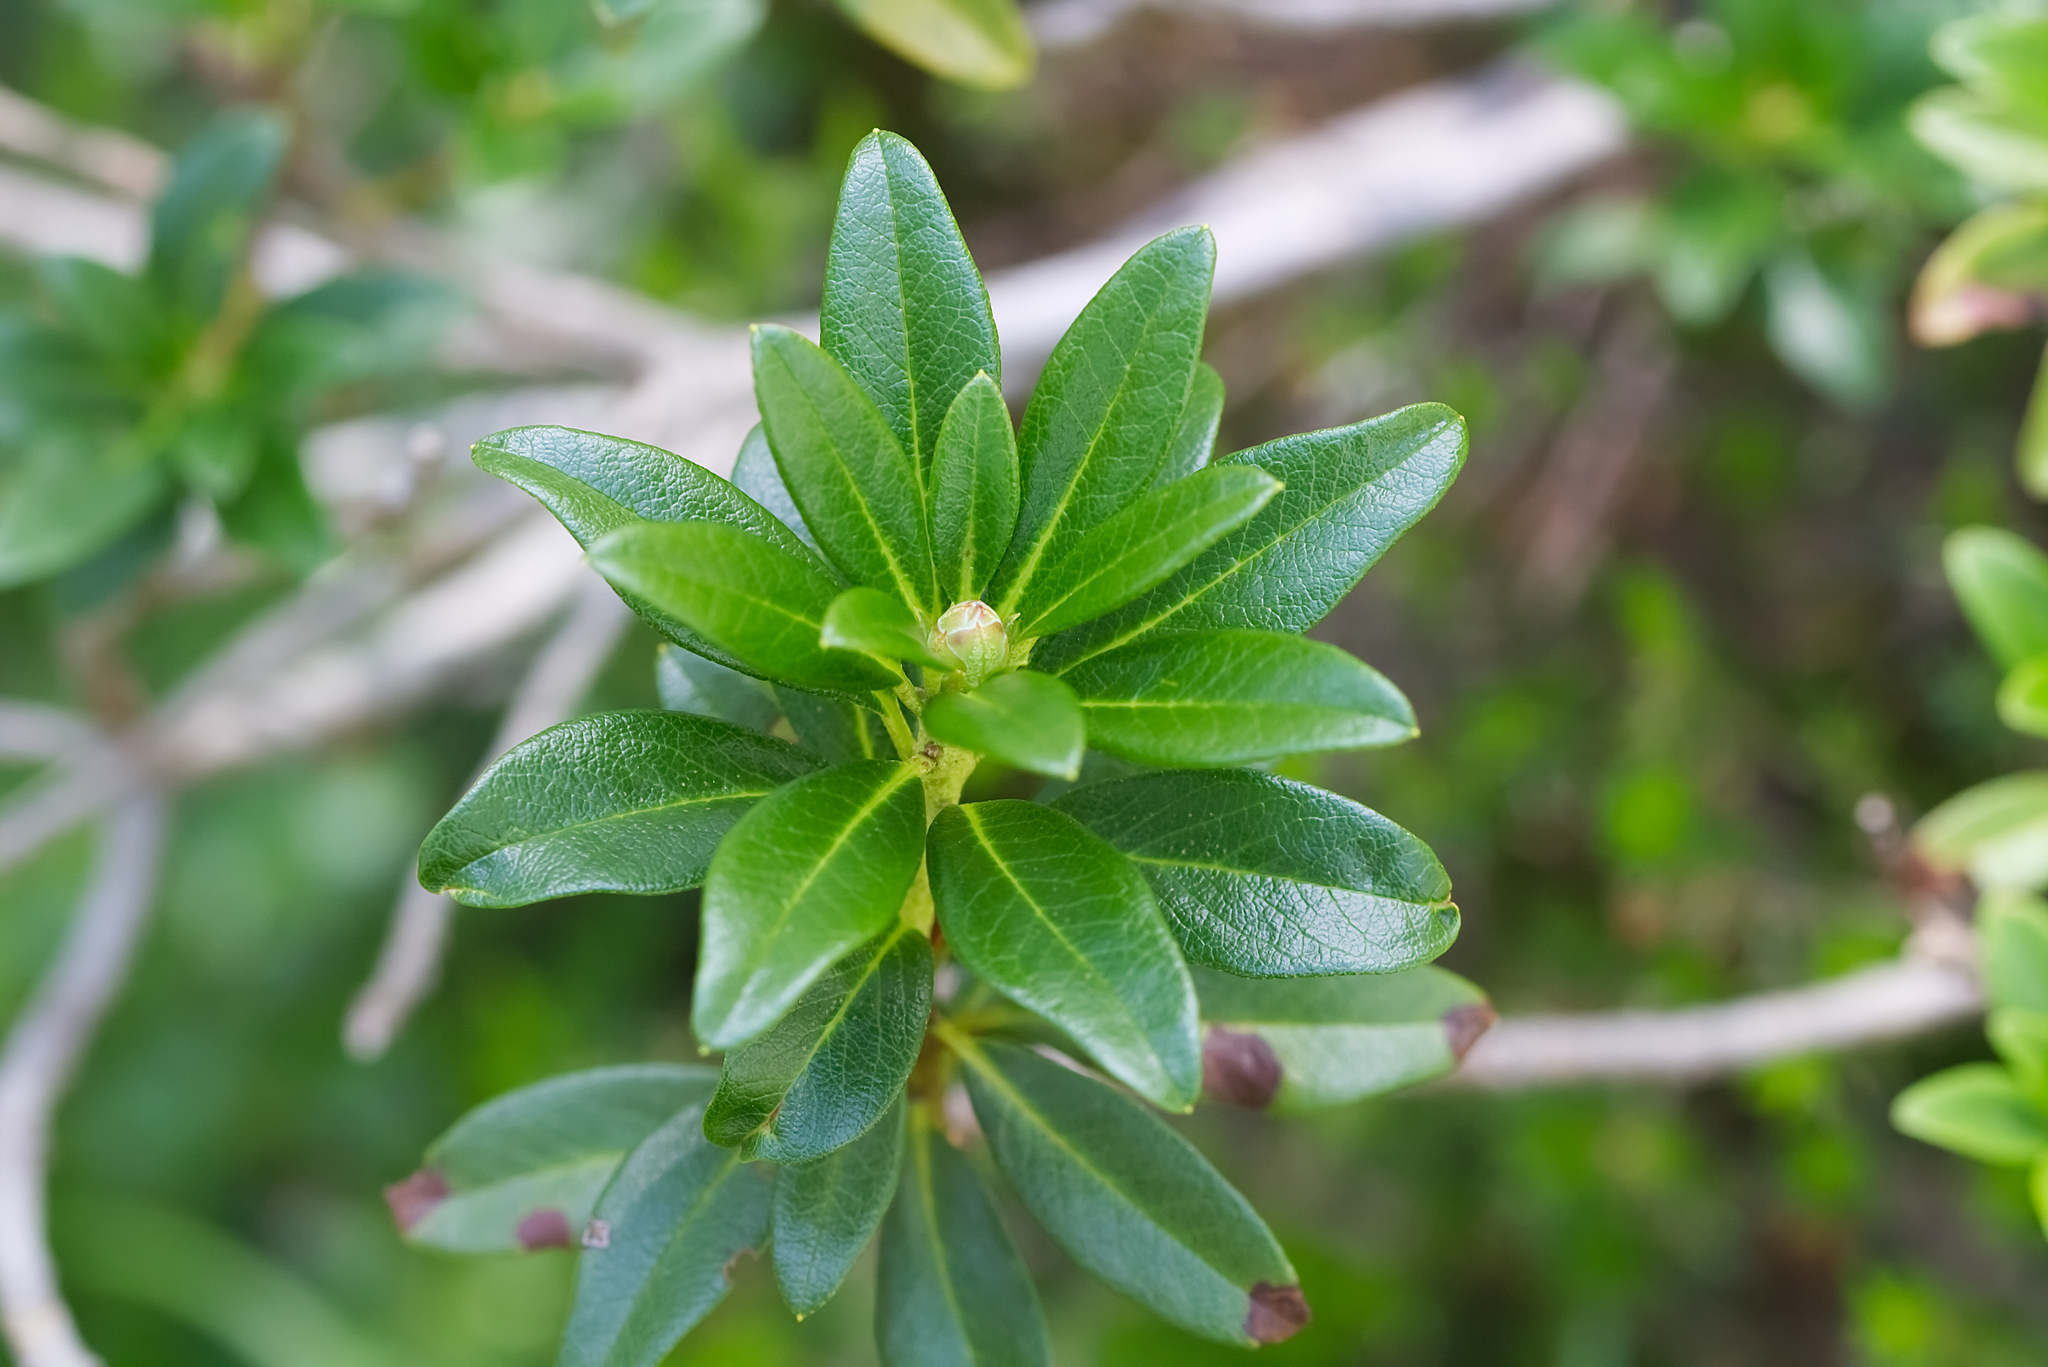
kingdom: Plantae
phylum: Tracheophyta
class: Magnoliopsida
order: Ericales
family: Ericaceae
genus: Rhododendron
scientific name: Rhododendron ferrugineum
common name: Alpenrose
